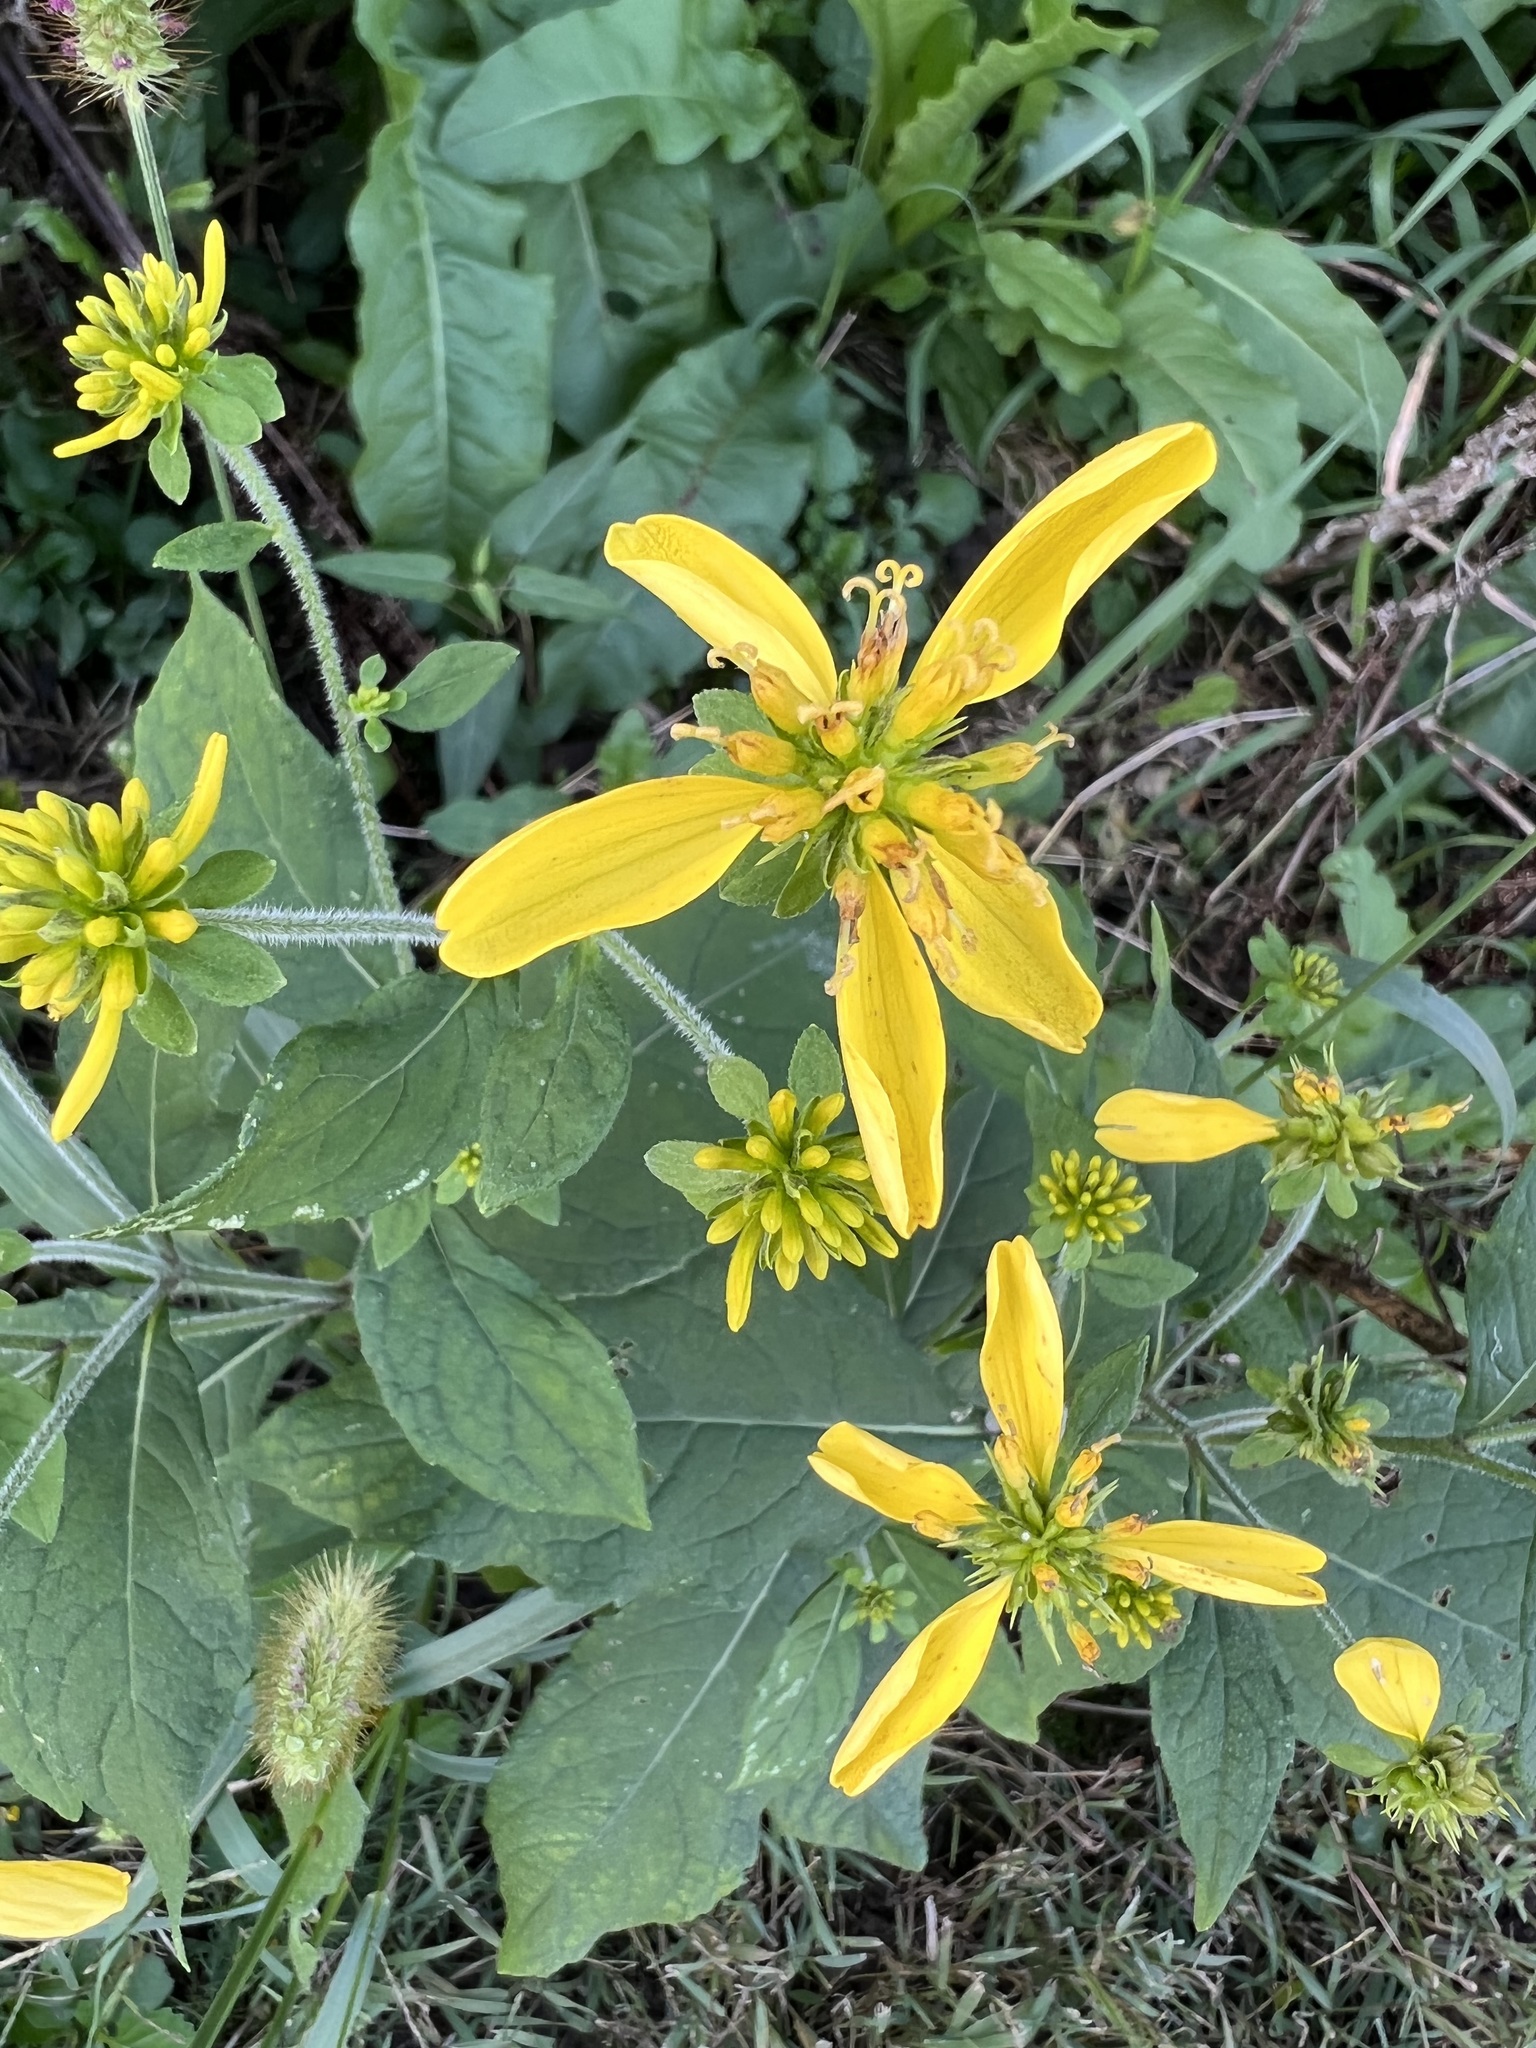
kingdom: Plantae
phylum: Tracheophyta
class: Magnoliopsida
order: Asterales
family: Asteraceae
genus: Verbesina
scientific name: Verbesina alternifolia
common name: Wingstem
